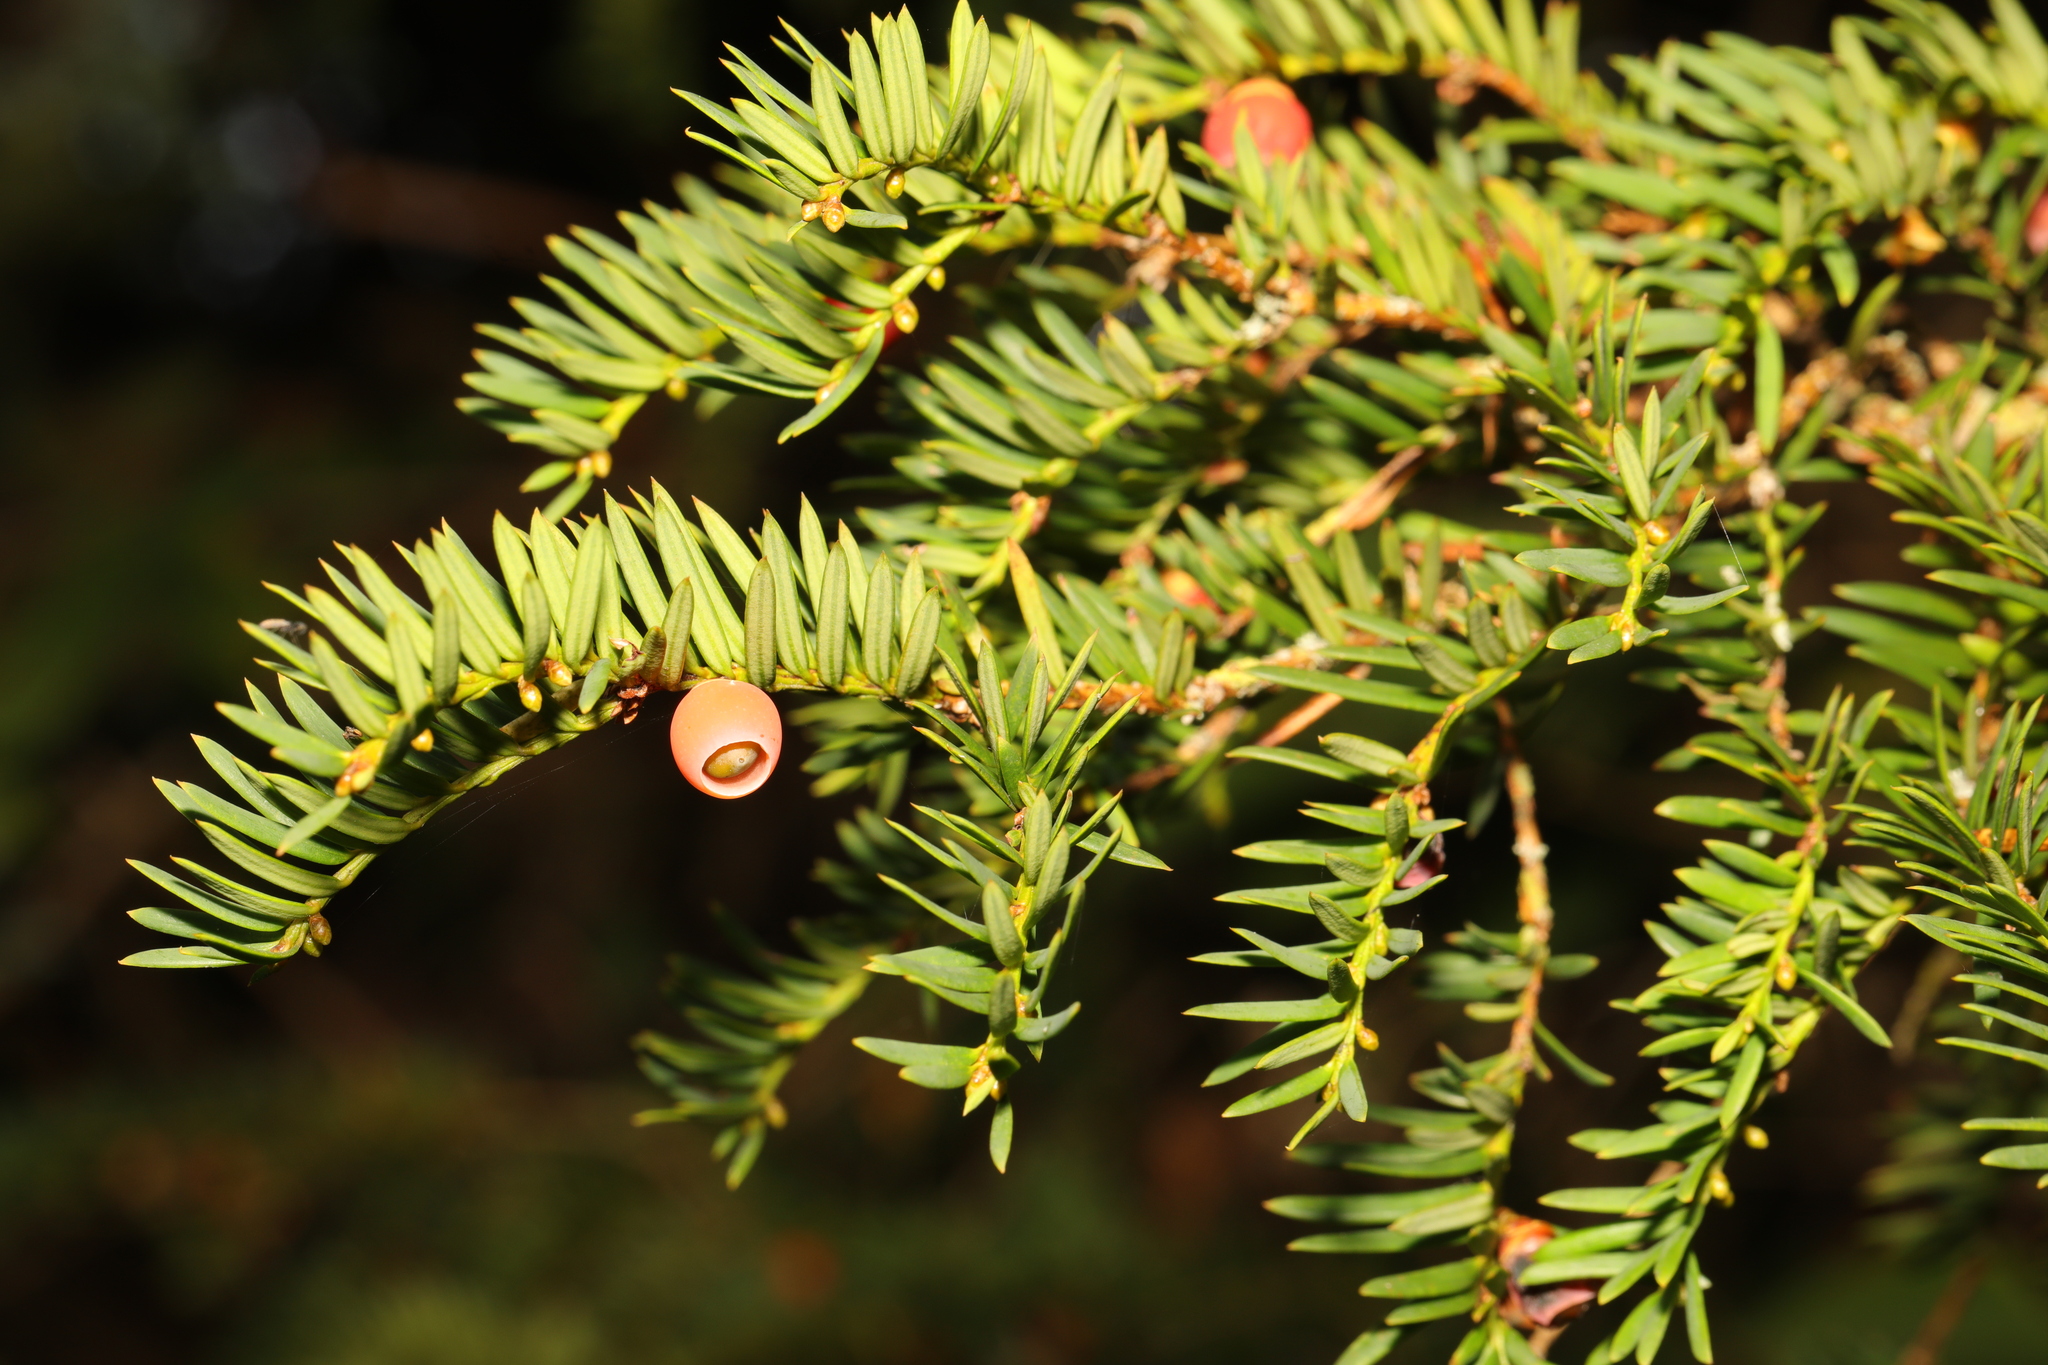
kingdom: Plantae
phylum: Tracheophyta
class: Pinopsida
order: Pinales
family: Taxaceae
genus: Taxus
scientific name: Taxus baccata
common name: Yew
